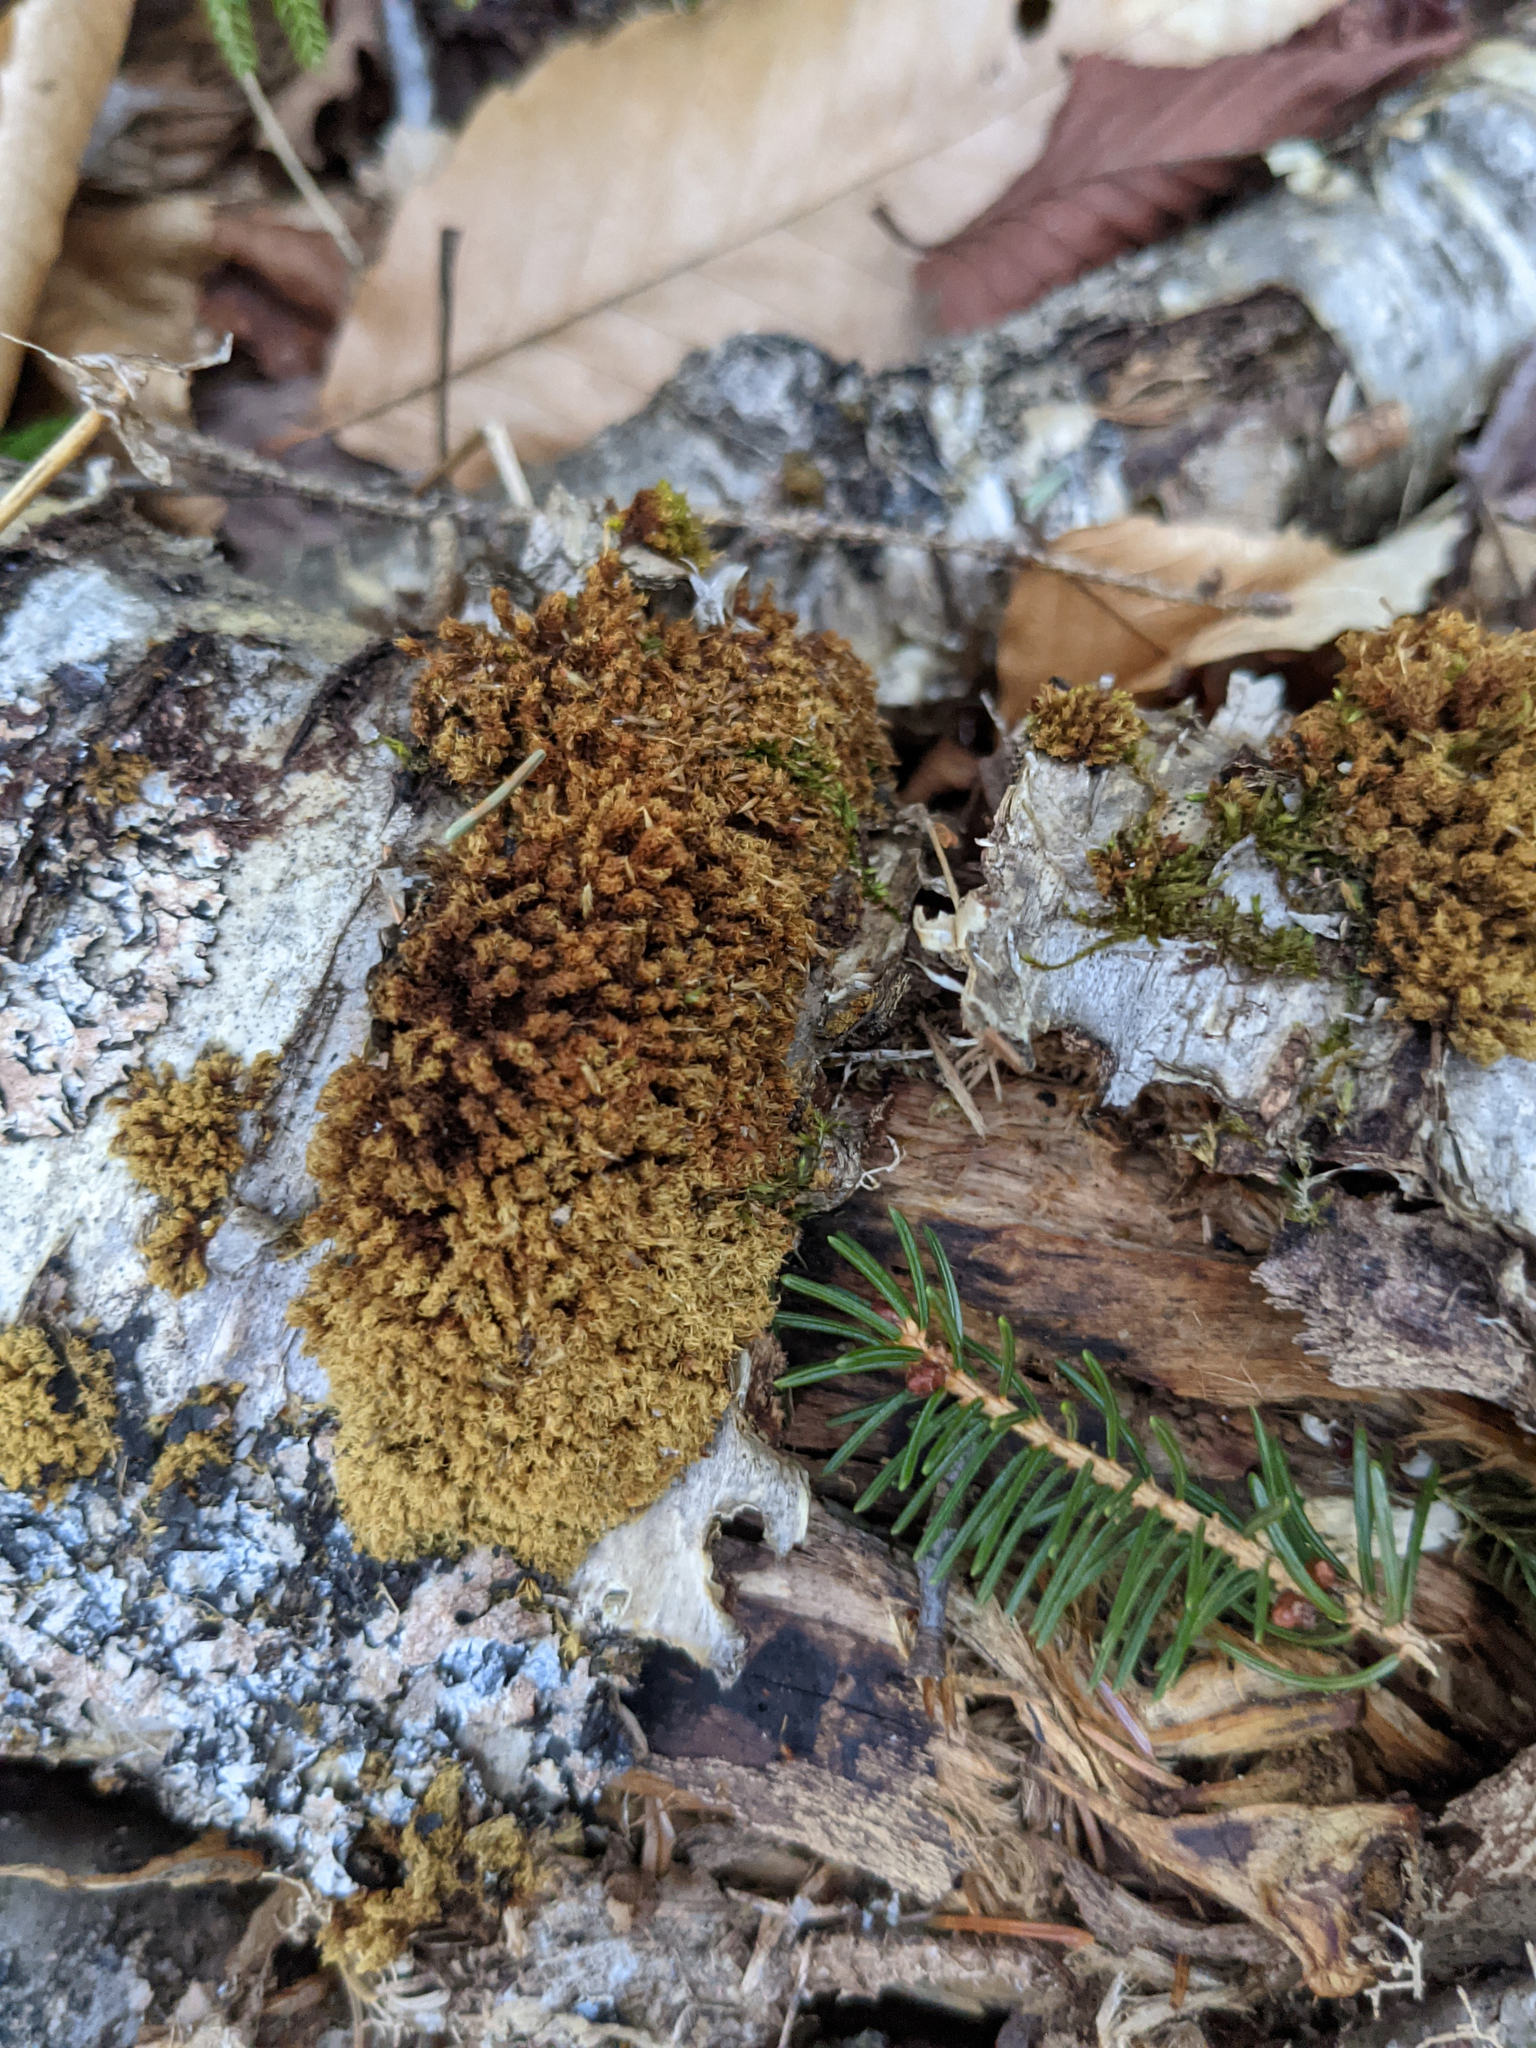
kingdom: Plantae
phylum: Bryophyta
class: Bryopsida
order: Orthotrichales
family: Orthotrichaceae
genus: Ulota
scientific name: Ulota crispa
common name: Crisped pincushion moss
